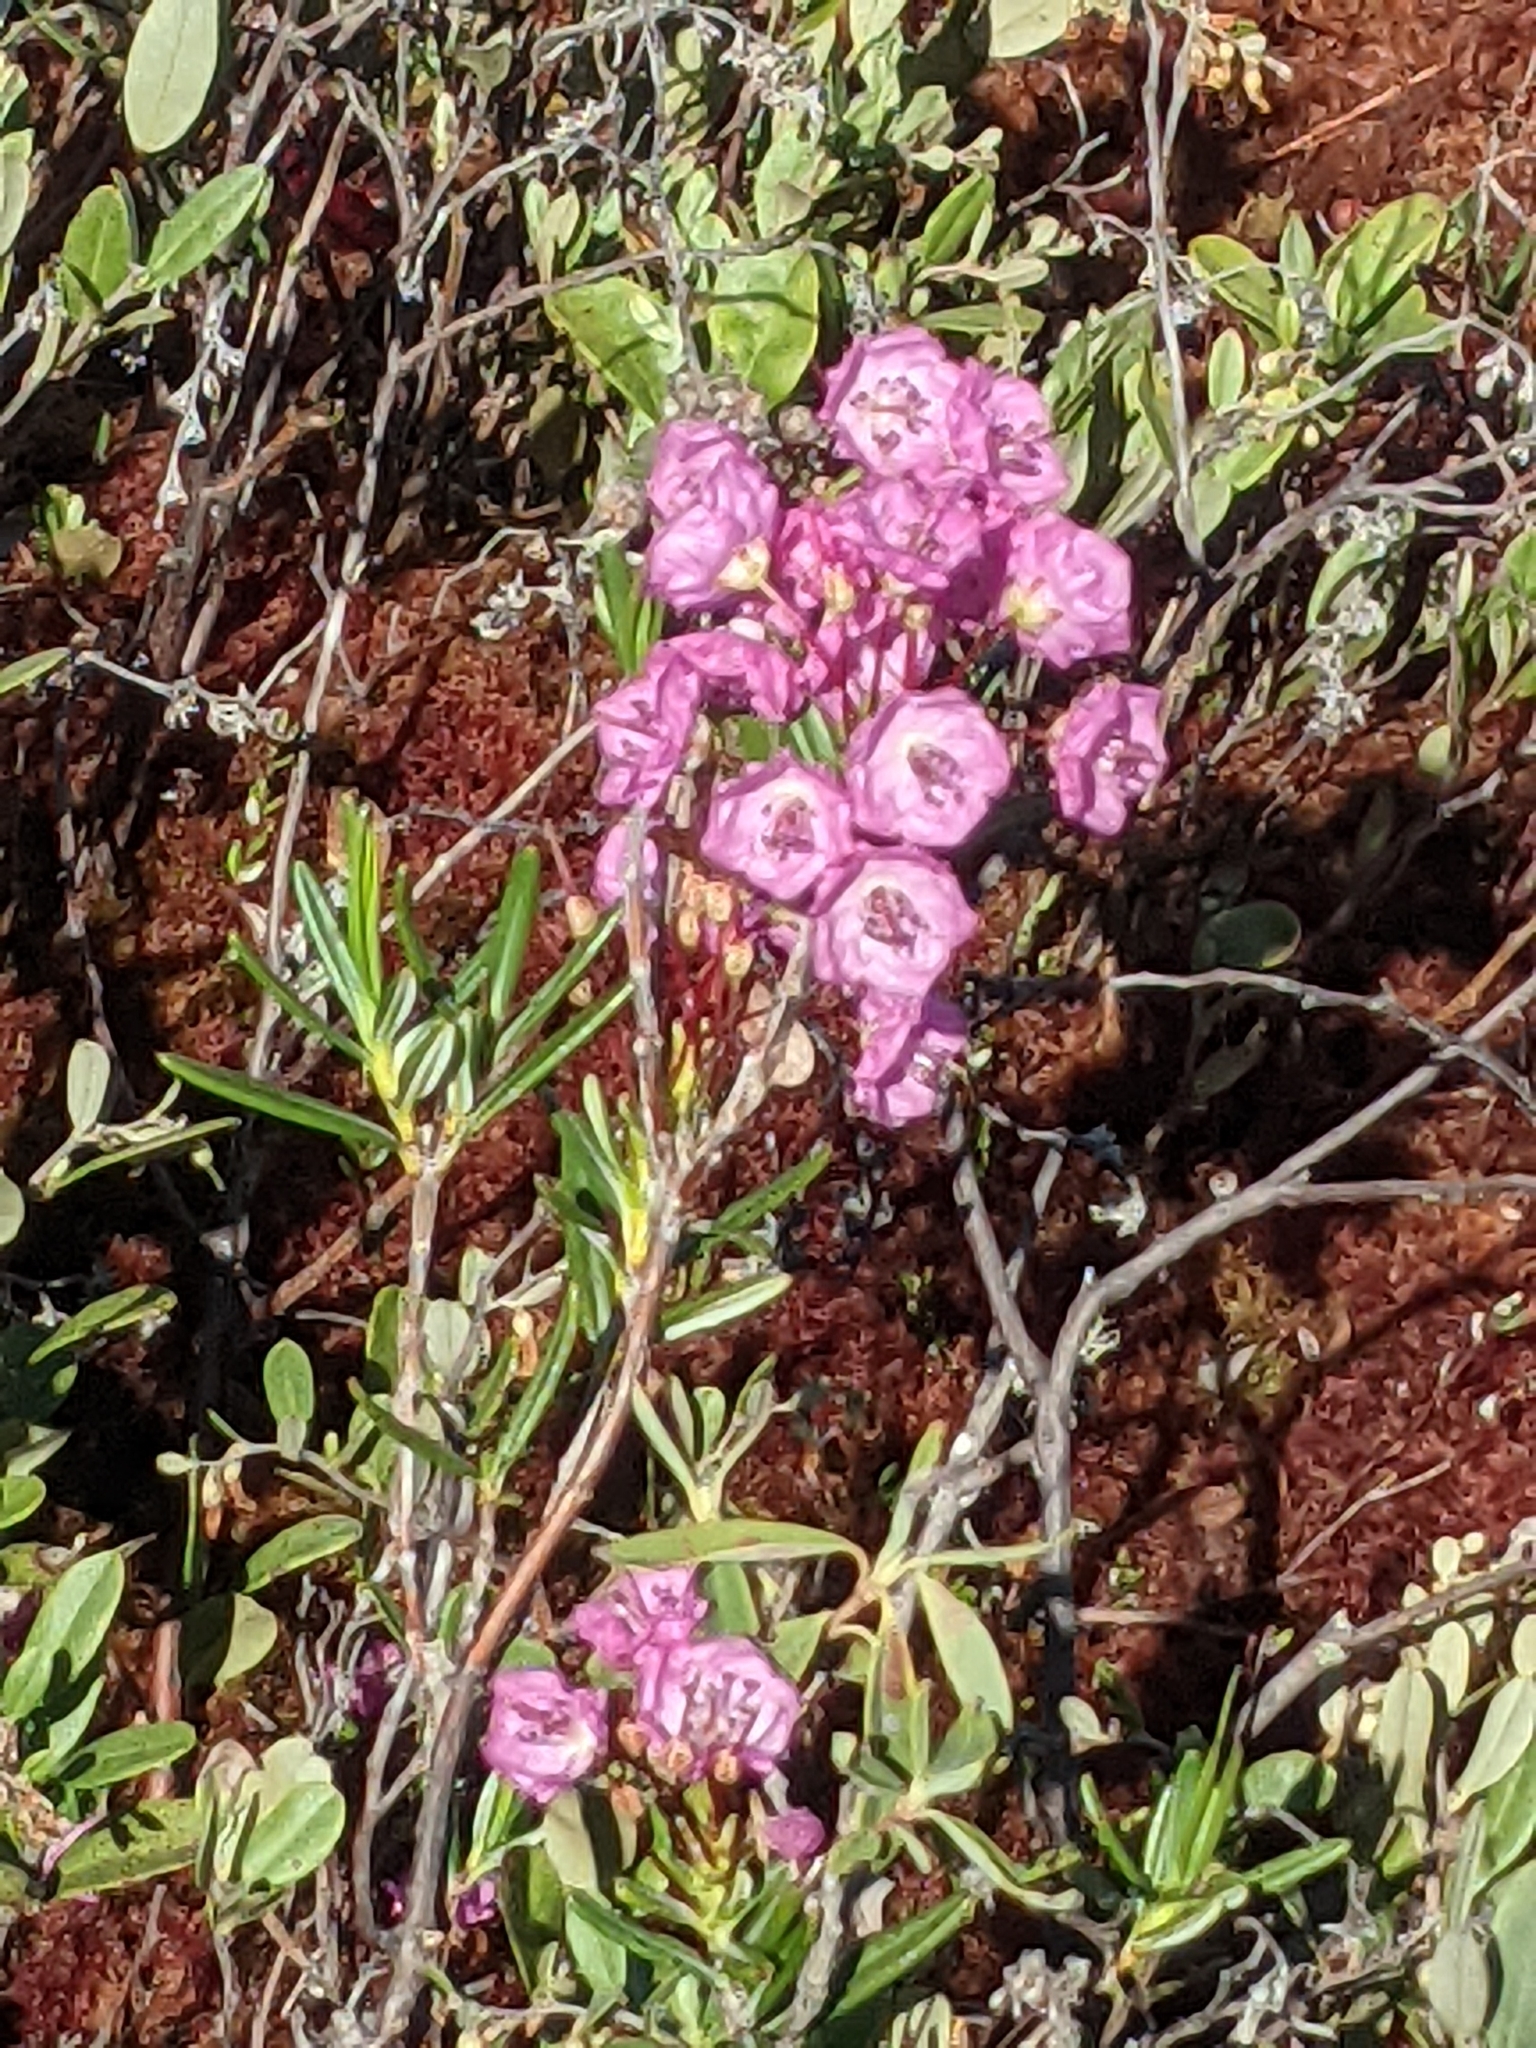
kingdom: Plantae
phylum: Tracheophyta
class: Magnoliopsida
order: Ericales
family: Ericaceae
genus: Kalmia
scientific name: Kalmia polifolia
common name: Bog-laurel
